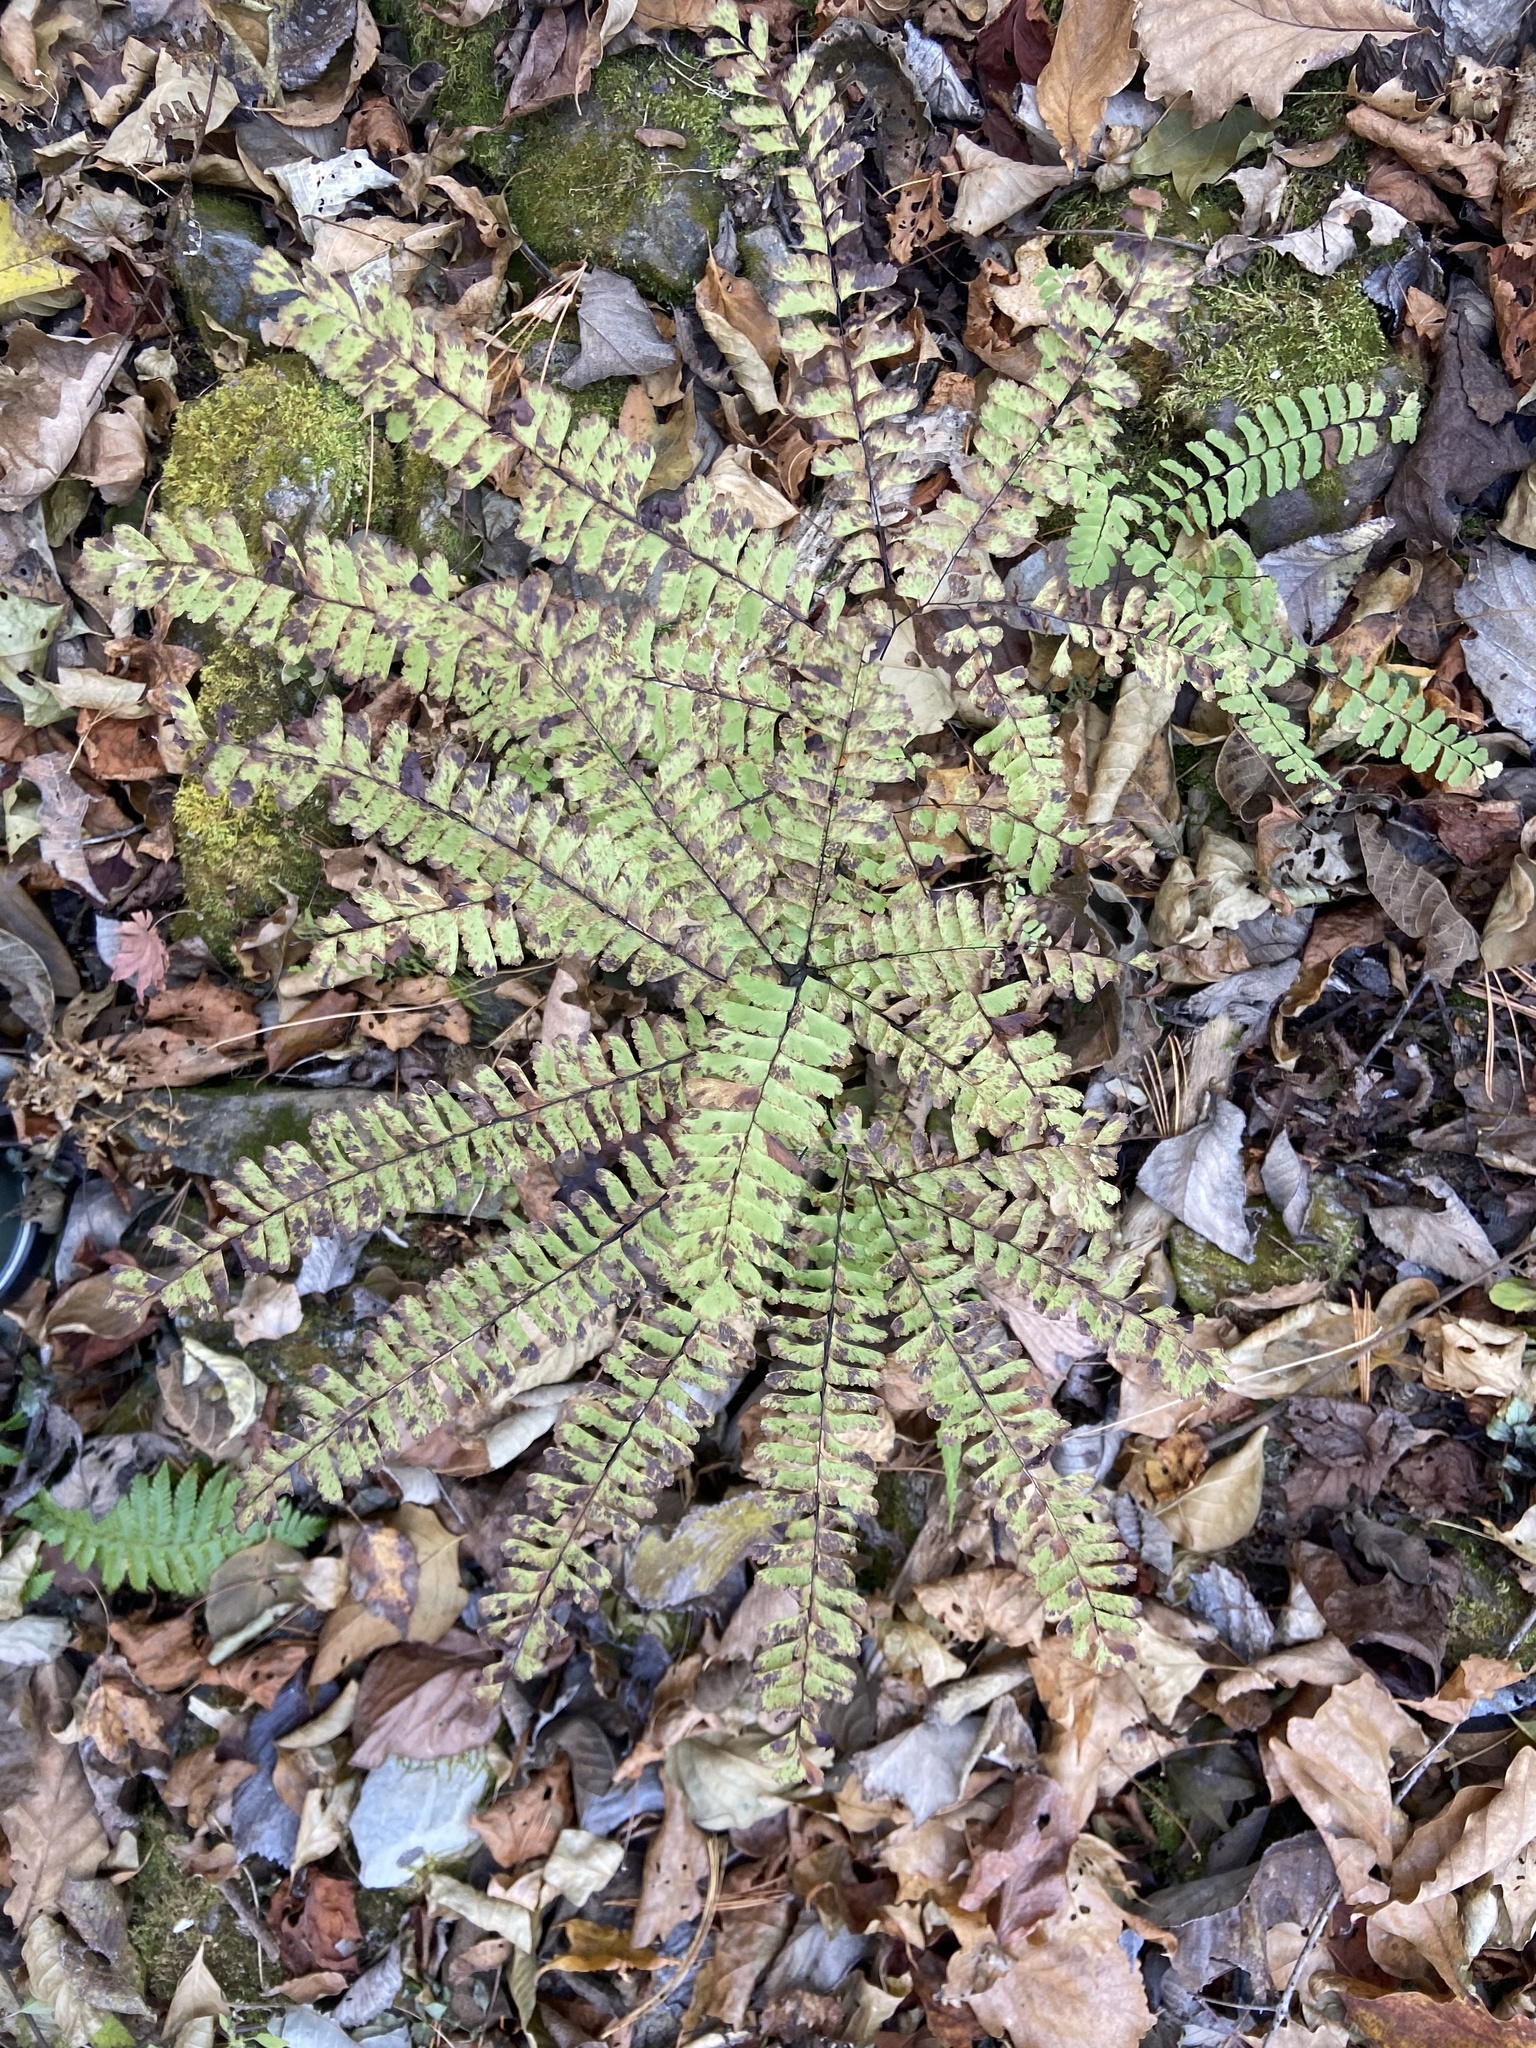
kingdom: Plantae
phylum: Tracheophyta
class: Polypodiopsida
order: Polypodiales
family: Pteridaceae
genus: Adiantum
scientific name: Adiantum pedatum
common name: Five-finger fern
